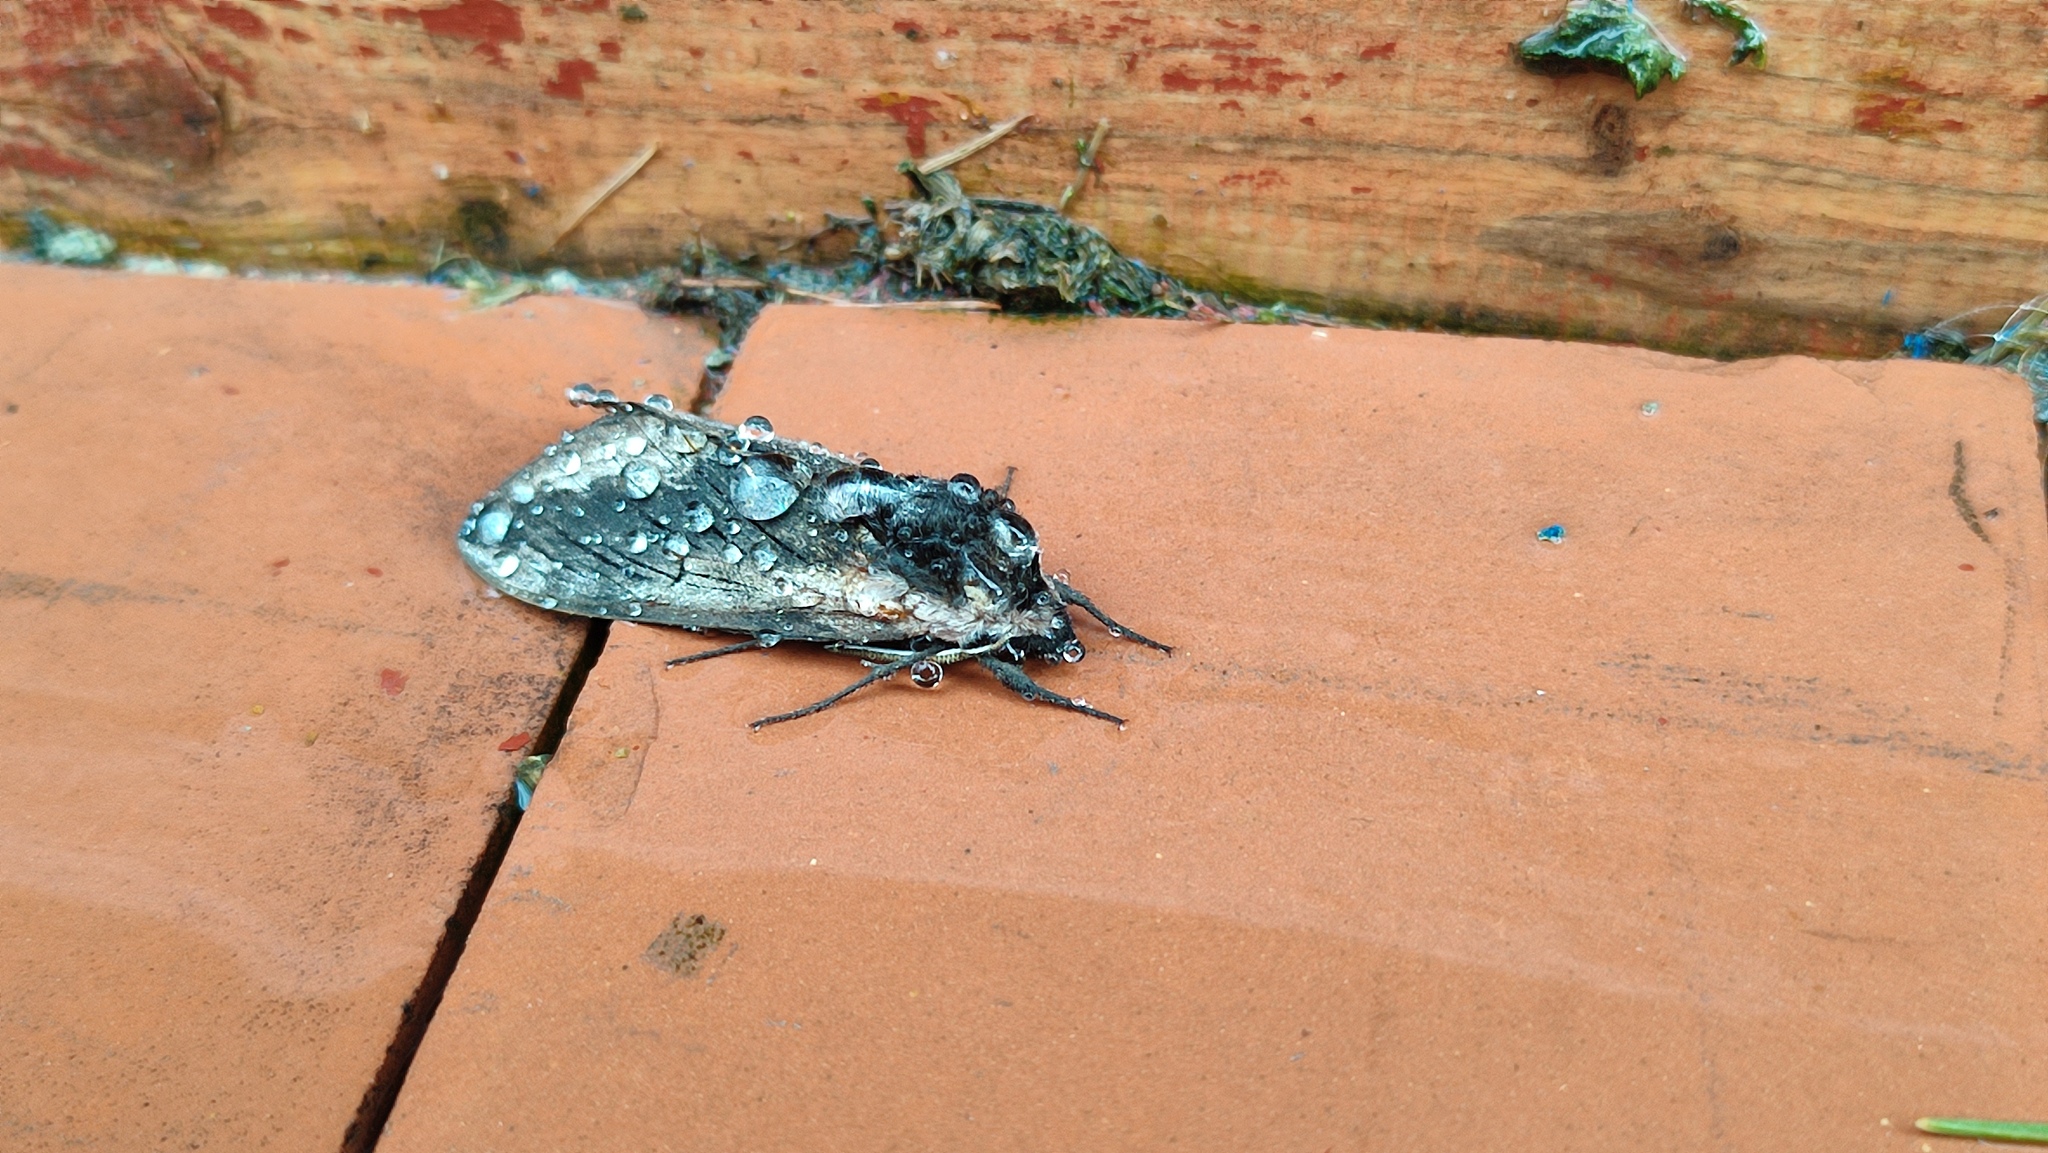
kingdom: Animalia
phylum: Arthropoda
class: Insecta
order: Lepidoptera
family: Sphingidae
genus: Sphinx
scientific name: Sphinx ligustri
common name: Privet hawk-moth
